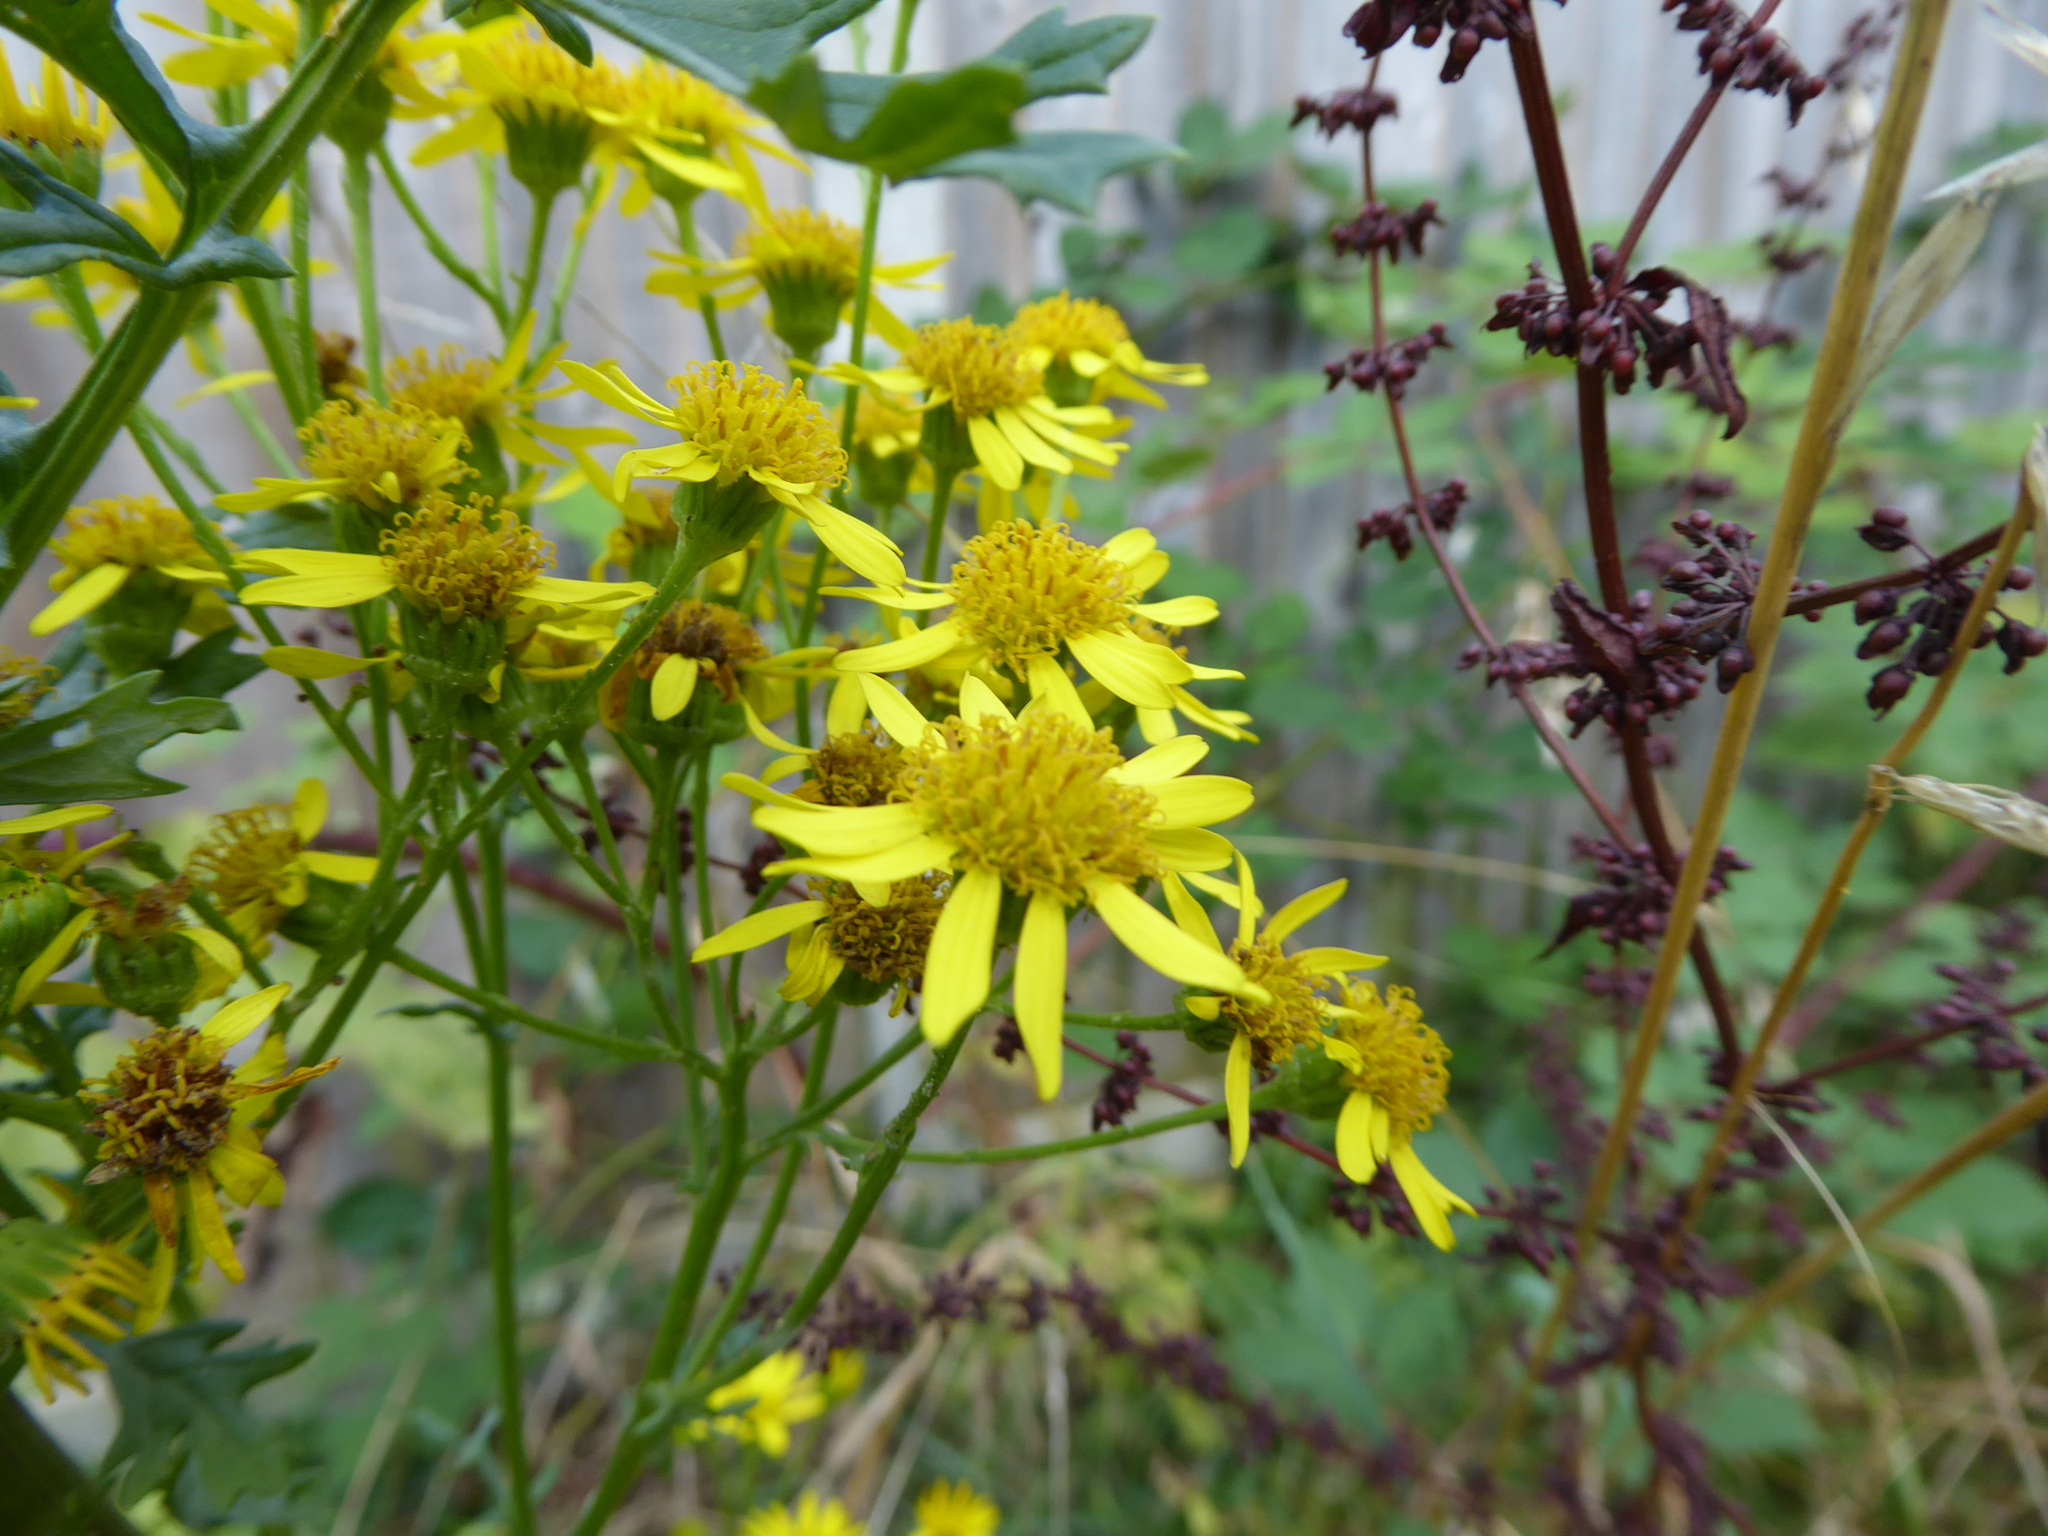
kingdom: Plantae
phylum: Tracheophyta
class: Magnoliopsida
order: Asterales
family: Asteraceae
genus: Jacobaea
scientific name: Jacobaea vulgaris
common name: Stinking willie
